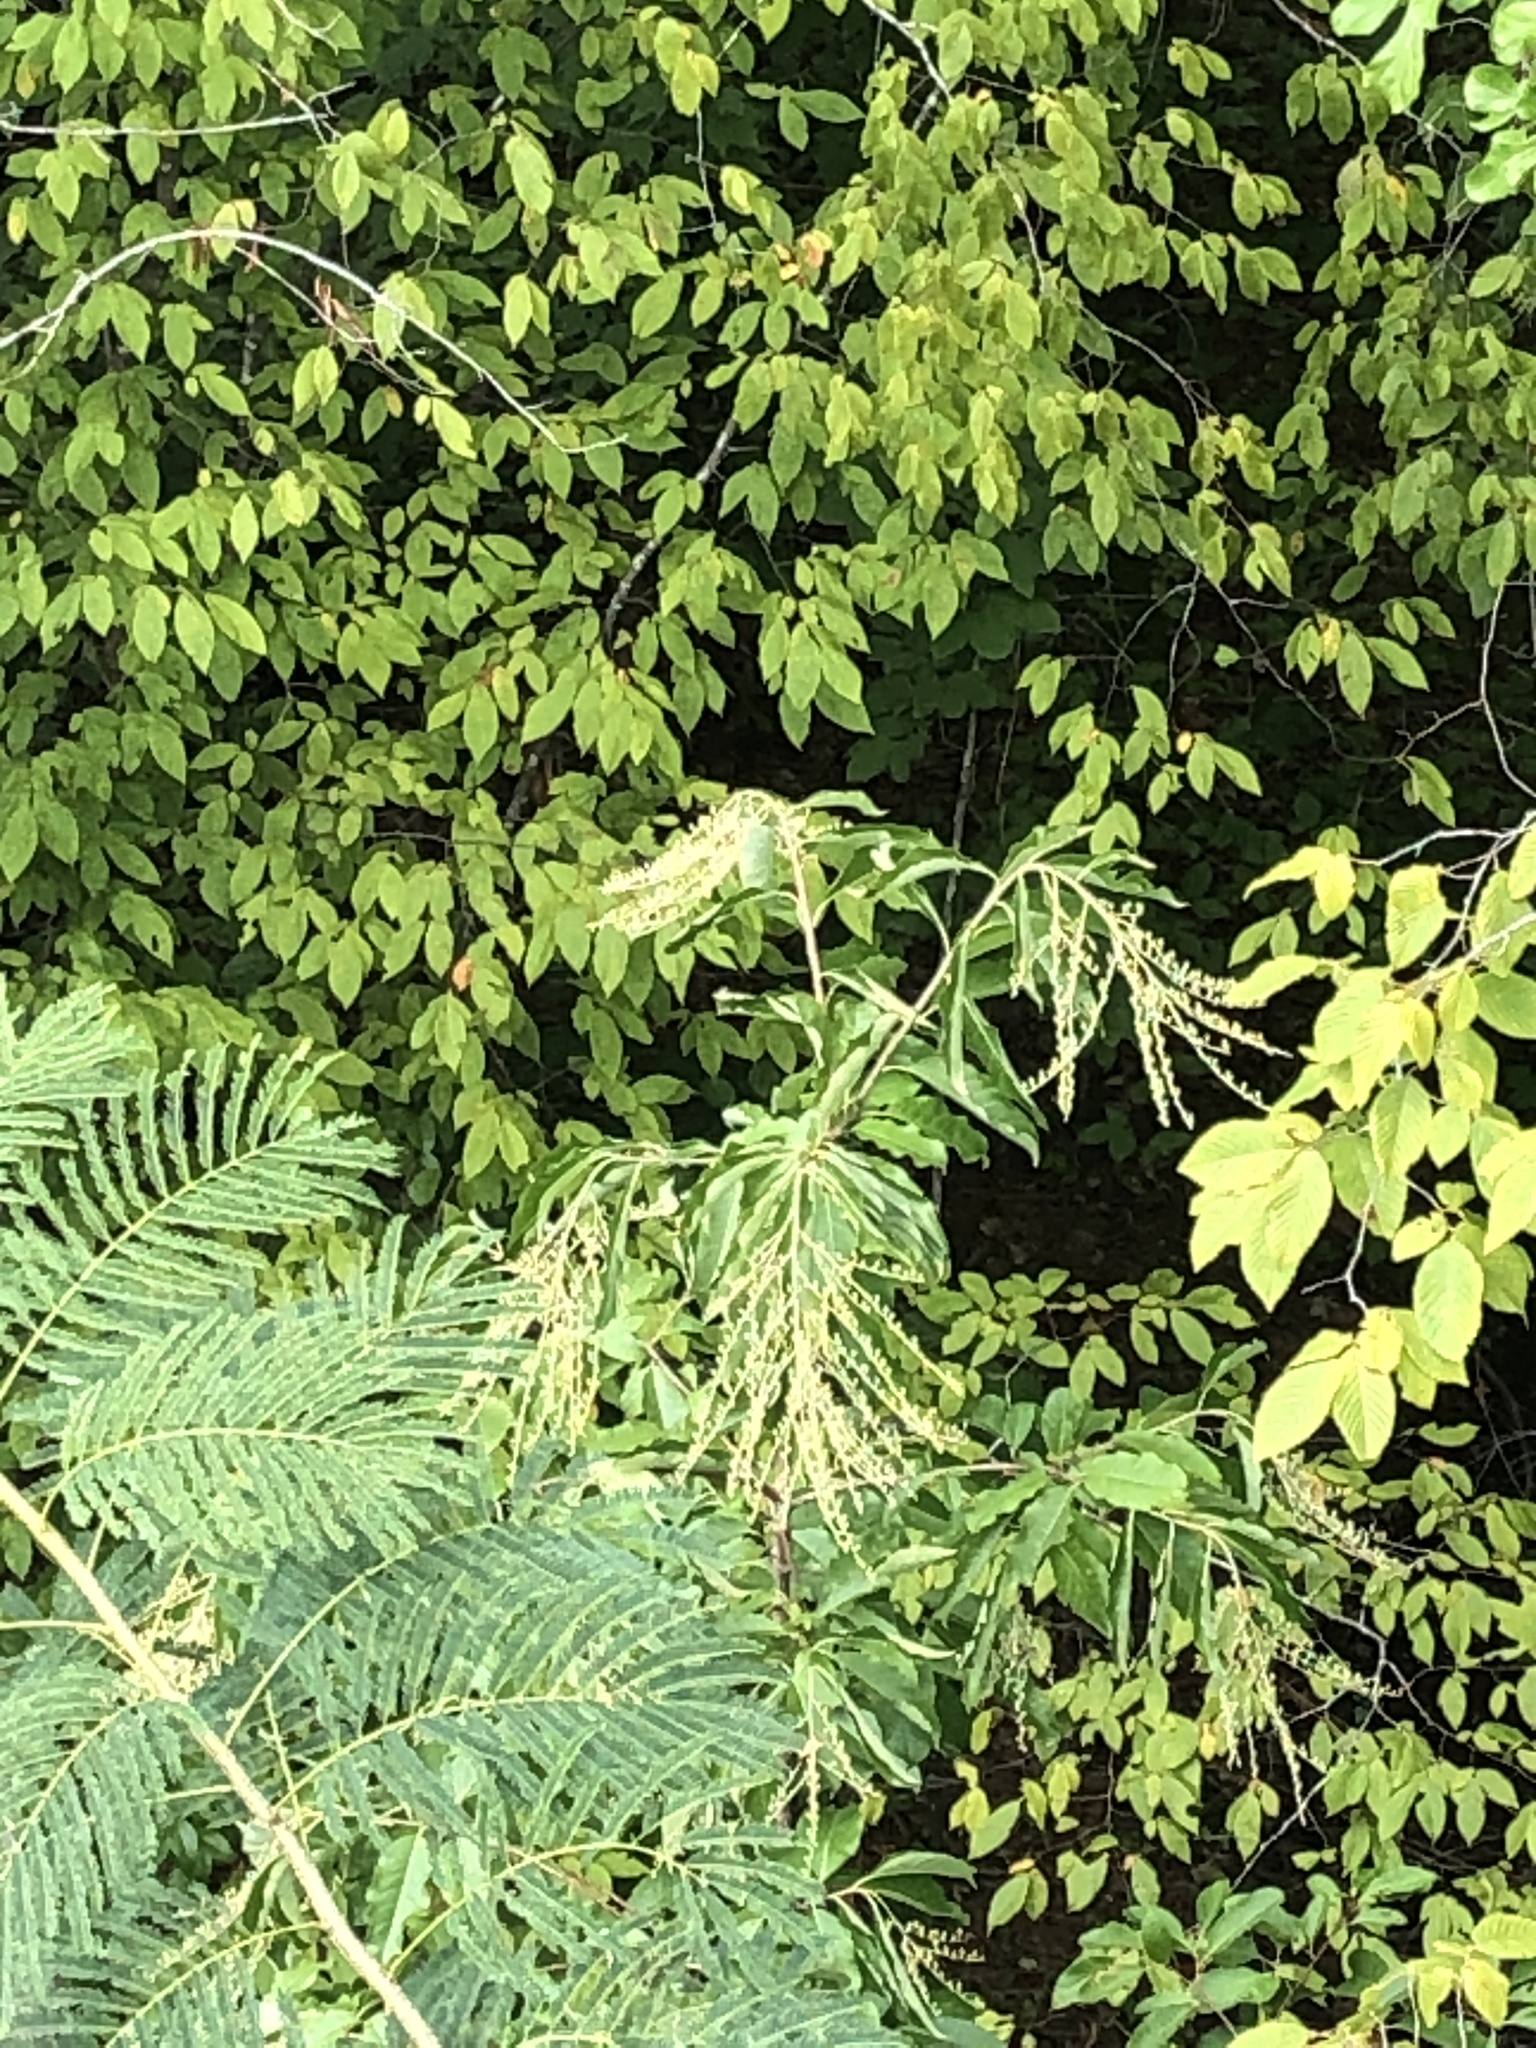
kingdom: Plantae
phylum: Tracheophyta
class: Magnoliopsida
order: Ericales
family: Ericaceae
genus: Oxydendrum
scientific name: Oxydendrum arboreum
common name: Sourwood
